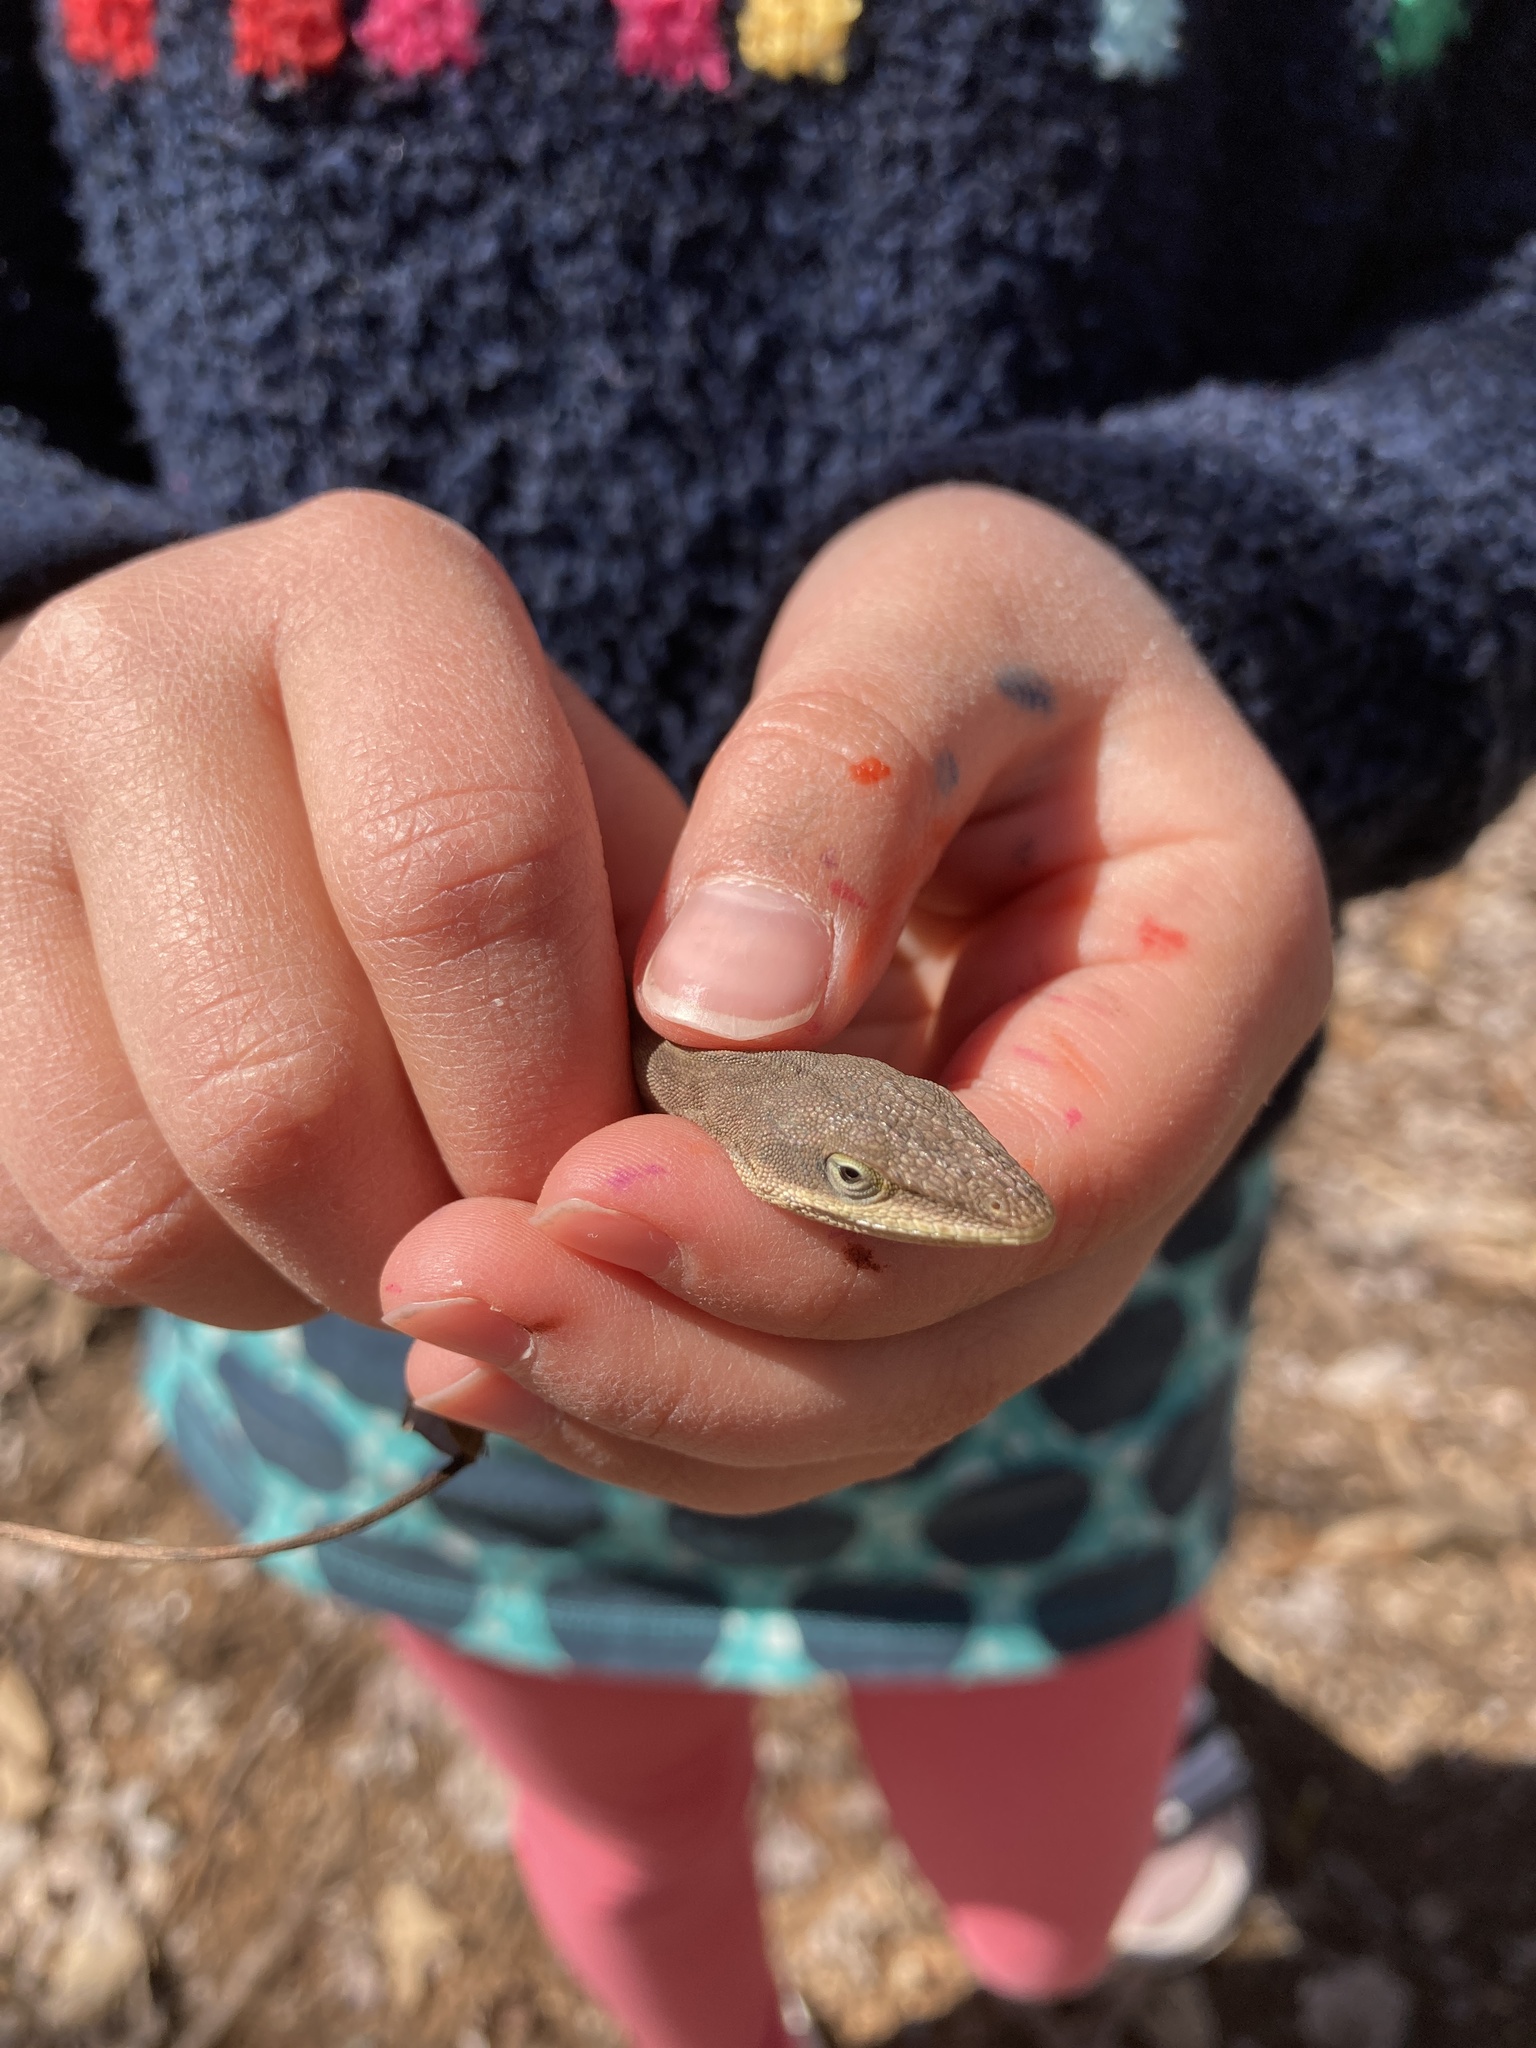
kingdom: Animalia
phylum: Chordata
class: Squamata
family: Dactyloidae
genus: Anolis
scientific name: Anolis carolinensis
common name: Green anole
